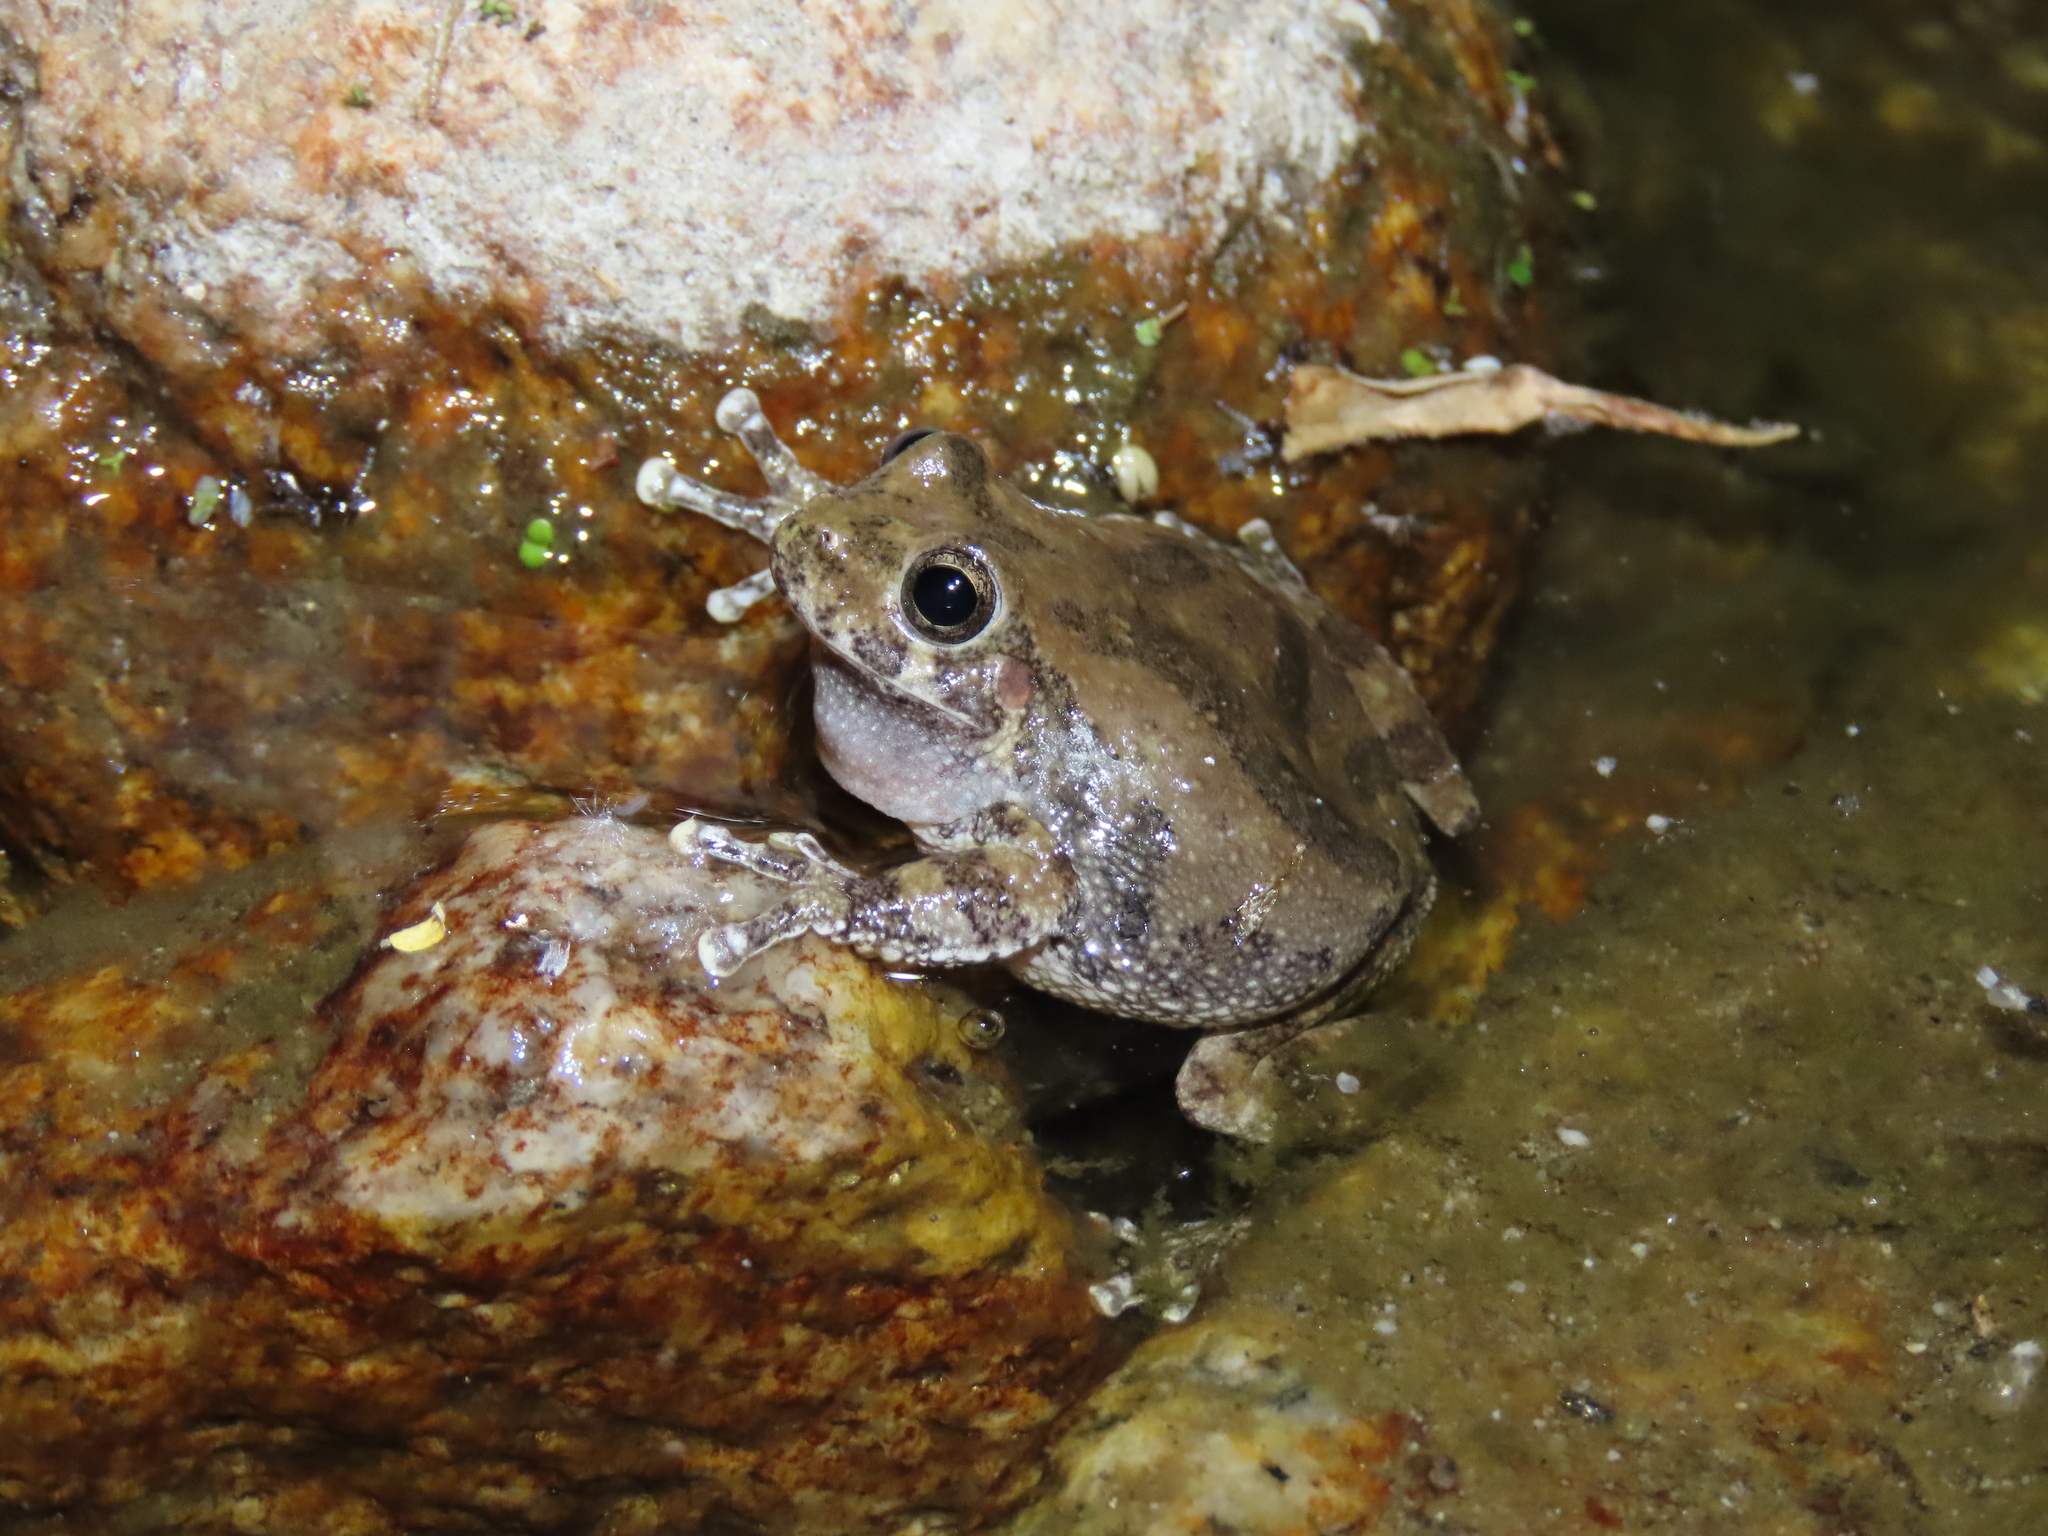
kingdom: Animalia
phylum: Chordata
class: Amphibia
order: Anura
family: Hylidae
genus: Dryophytes
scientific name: Dryophytes arenicolor
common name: Canyon treefrog
